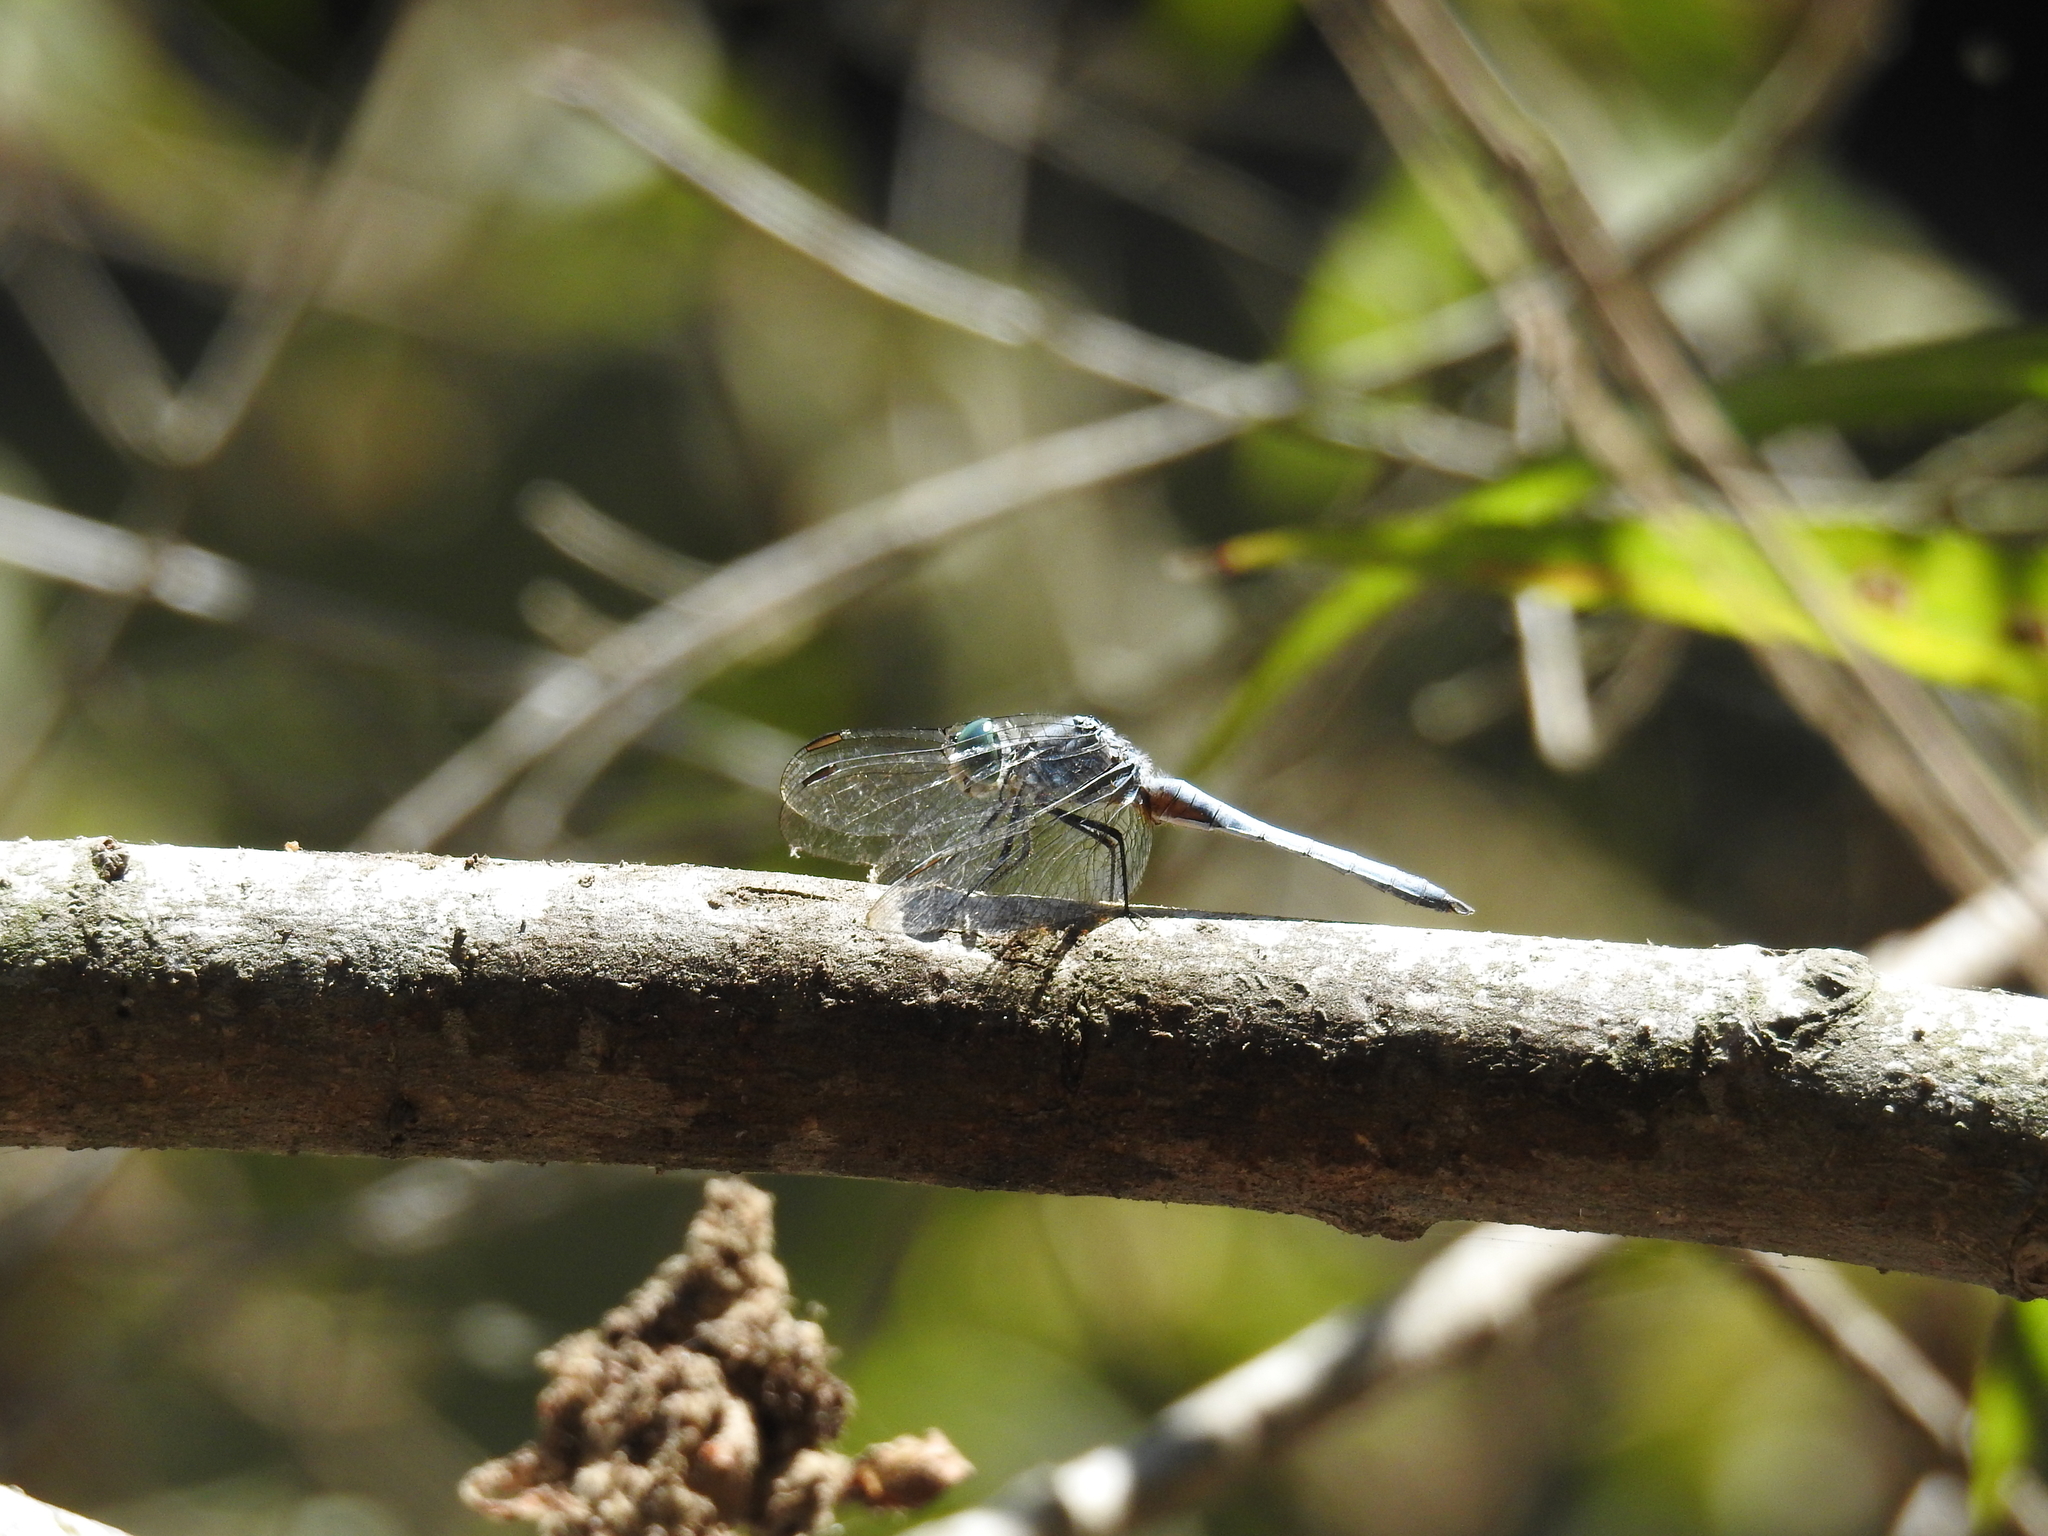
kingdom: Animalia
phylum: Arthropoda
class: Insecta
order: Odonata
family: Libellulidae
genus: Pachydiplax
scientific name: Pachydiplax longipennis
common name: Blue dasher
